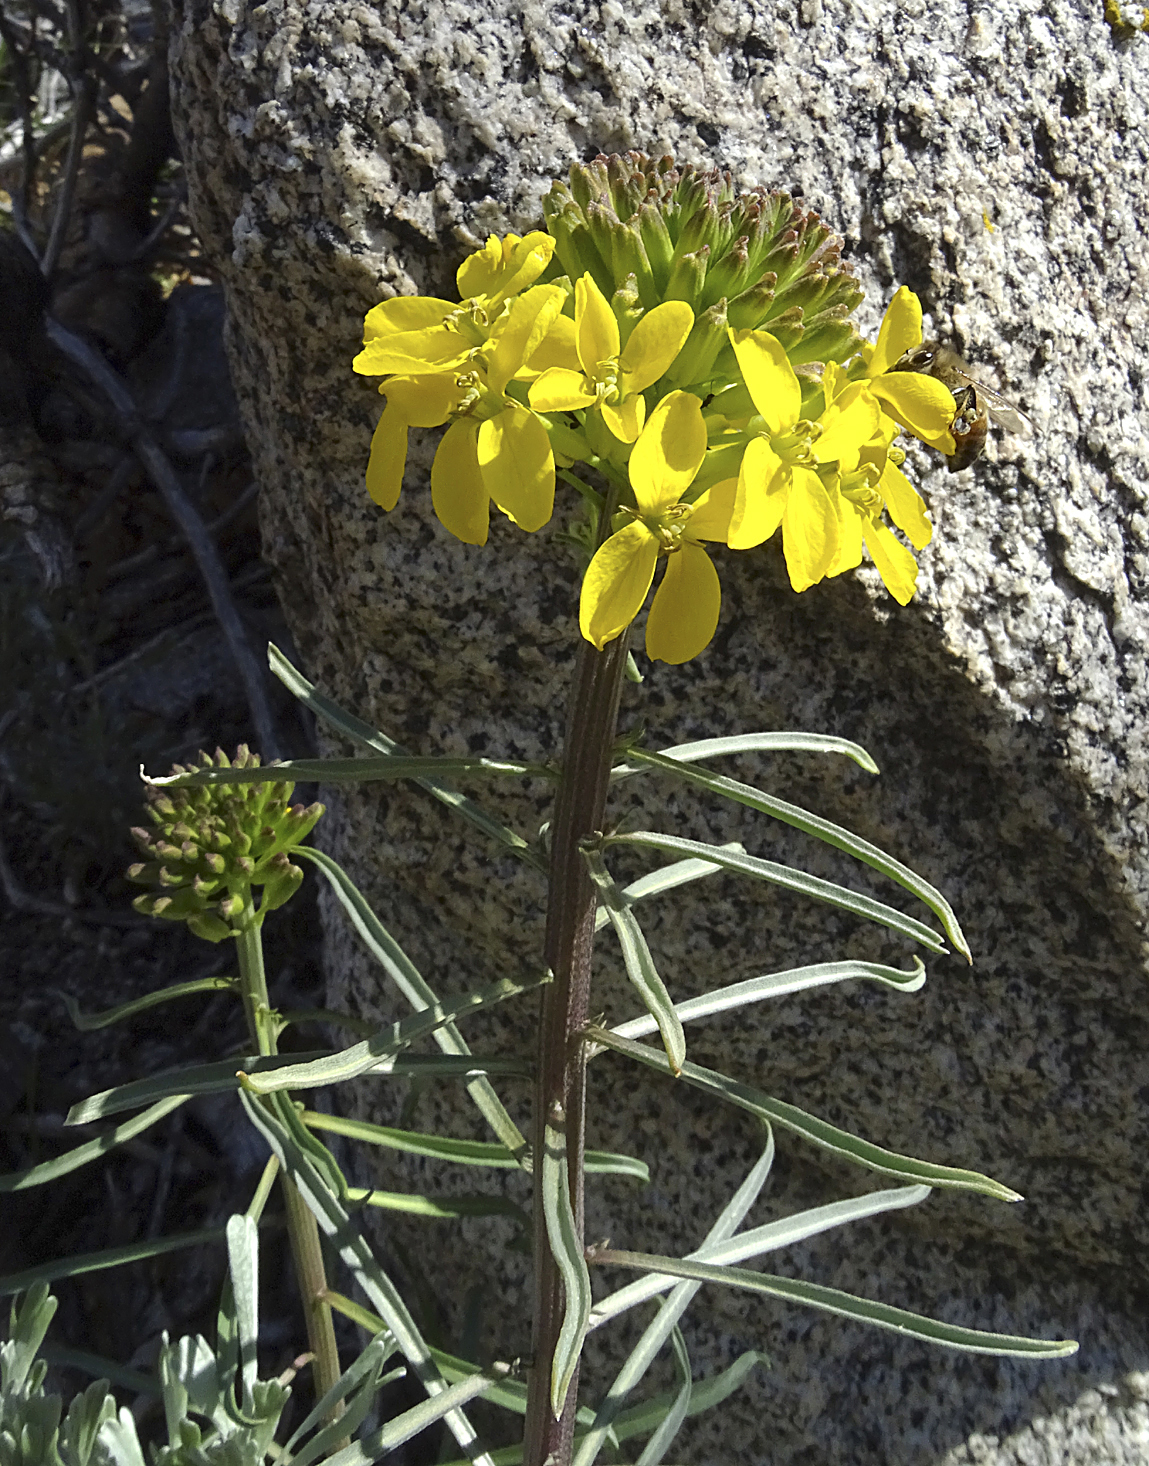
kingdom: Plantae
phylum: Tracheophyta
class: Magnoliopsida
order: Brassicales
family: Brassicaceae
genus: Erysimum
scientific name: Erysimum capitatum
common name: Western wallflower
